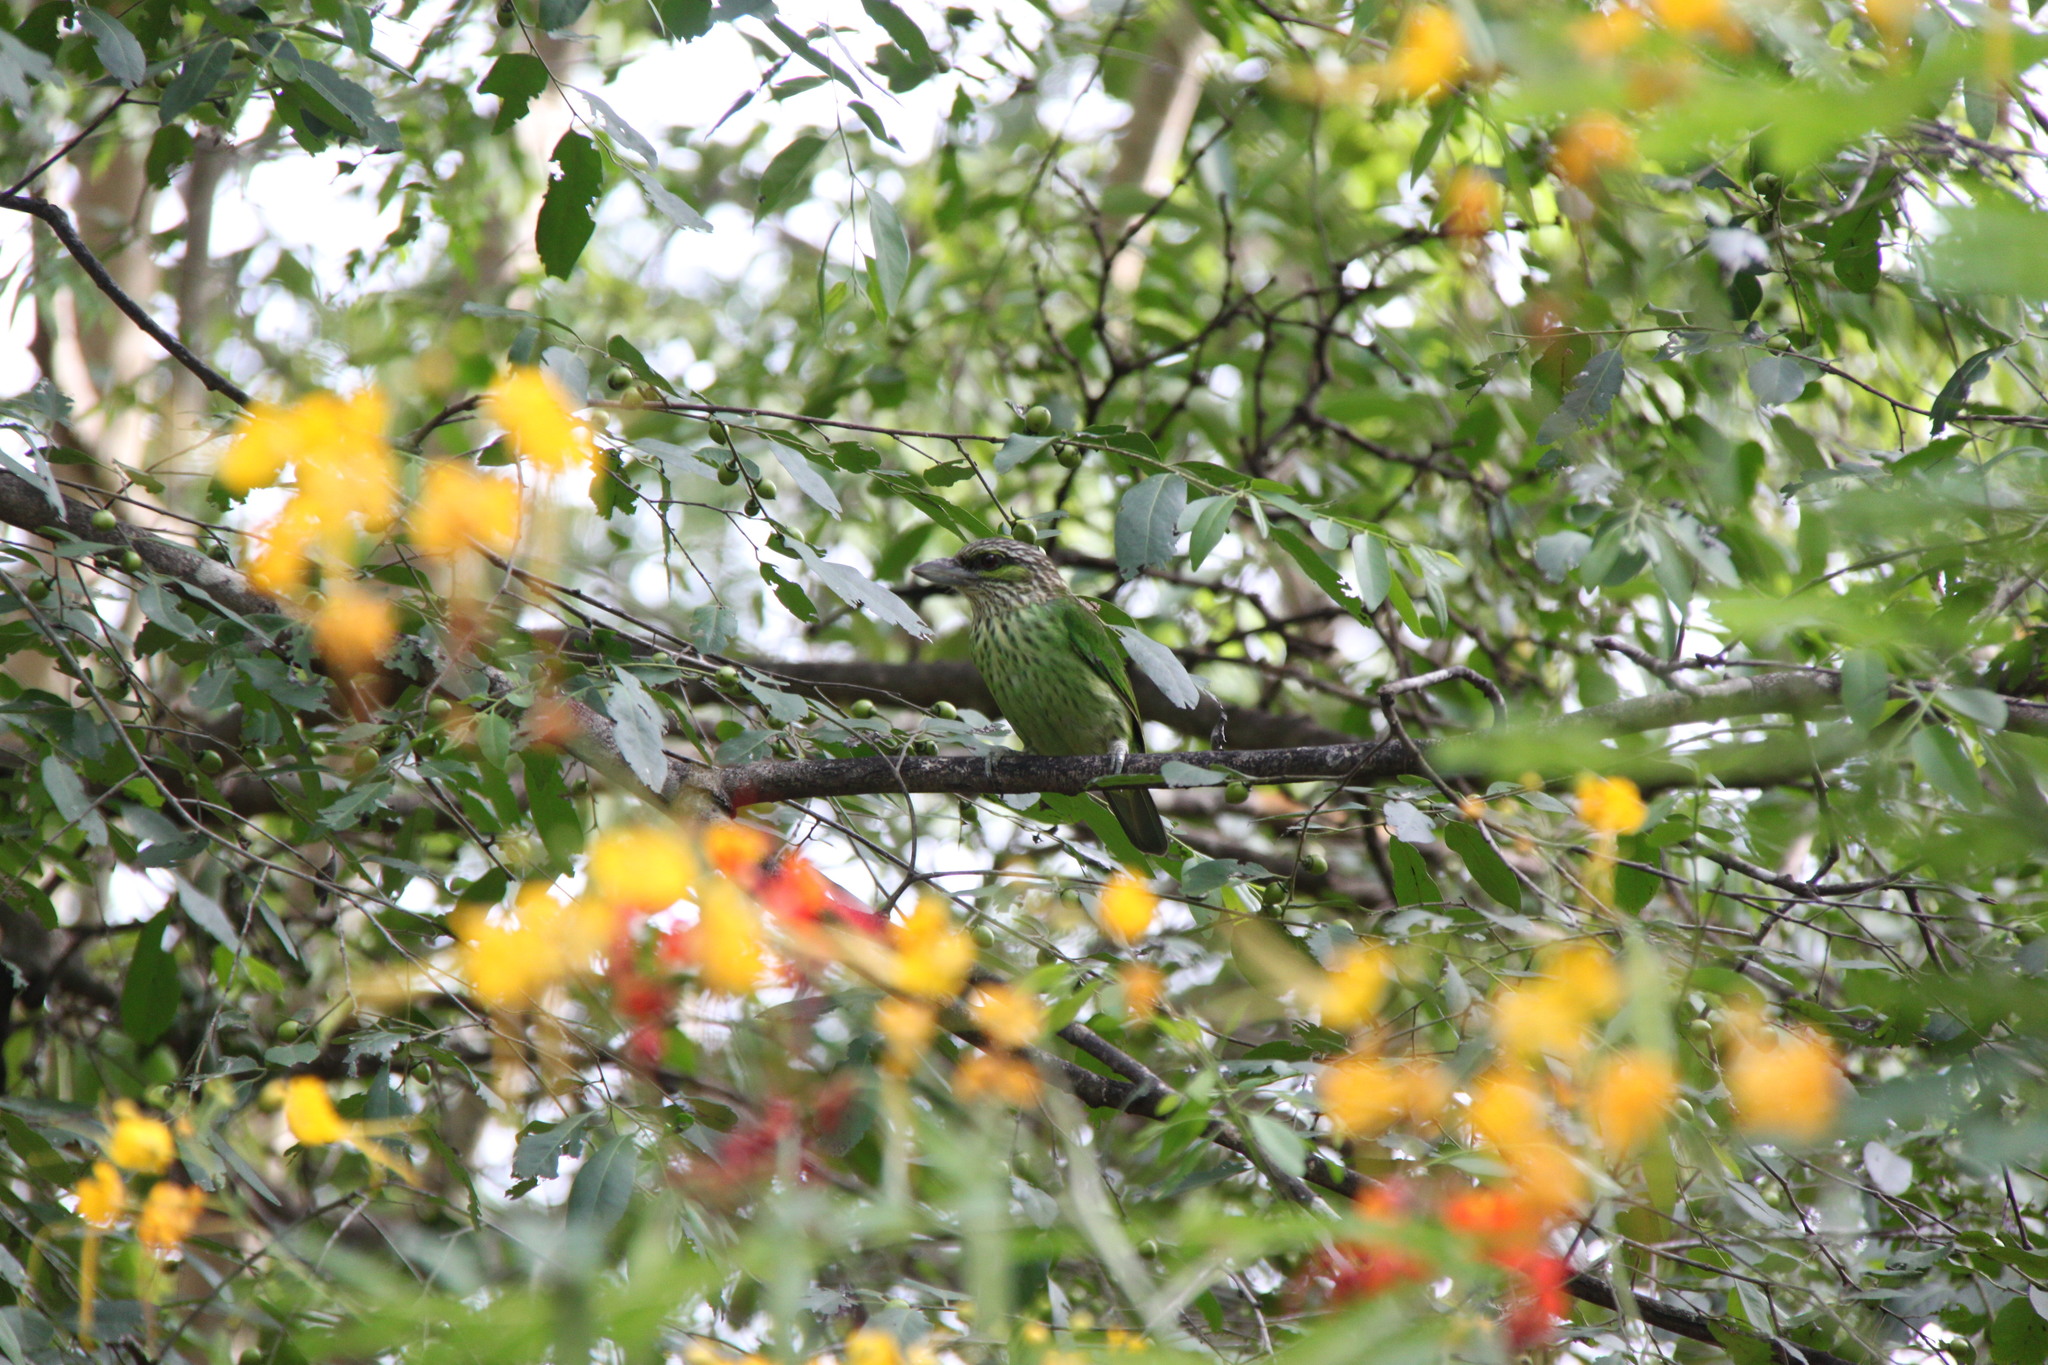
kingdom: Animalia
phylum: Chordata
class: Aves
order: Piciformes
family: Megalaimidae
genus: Psilopogon
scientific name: Psilopogon faiostrictus
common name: Green-eared barbet
